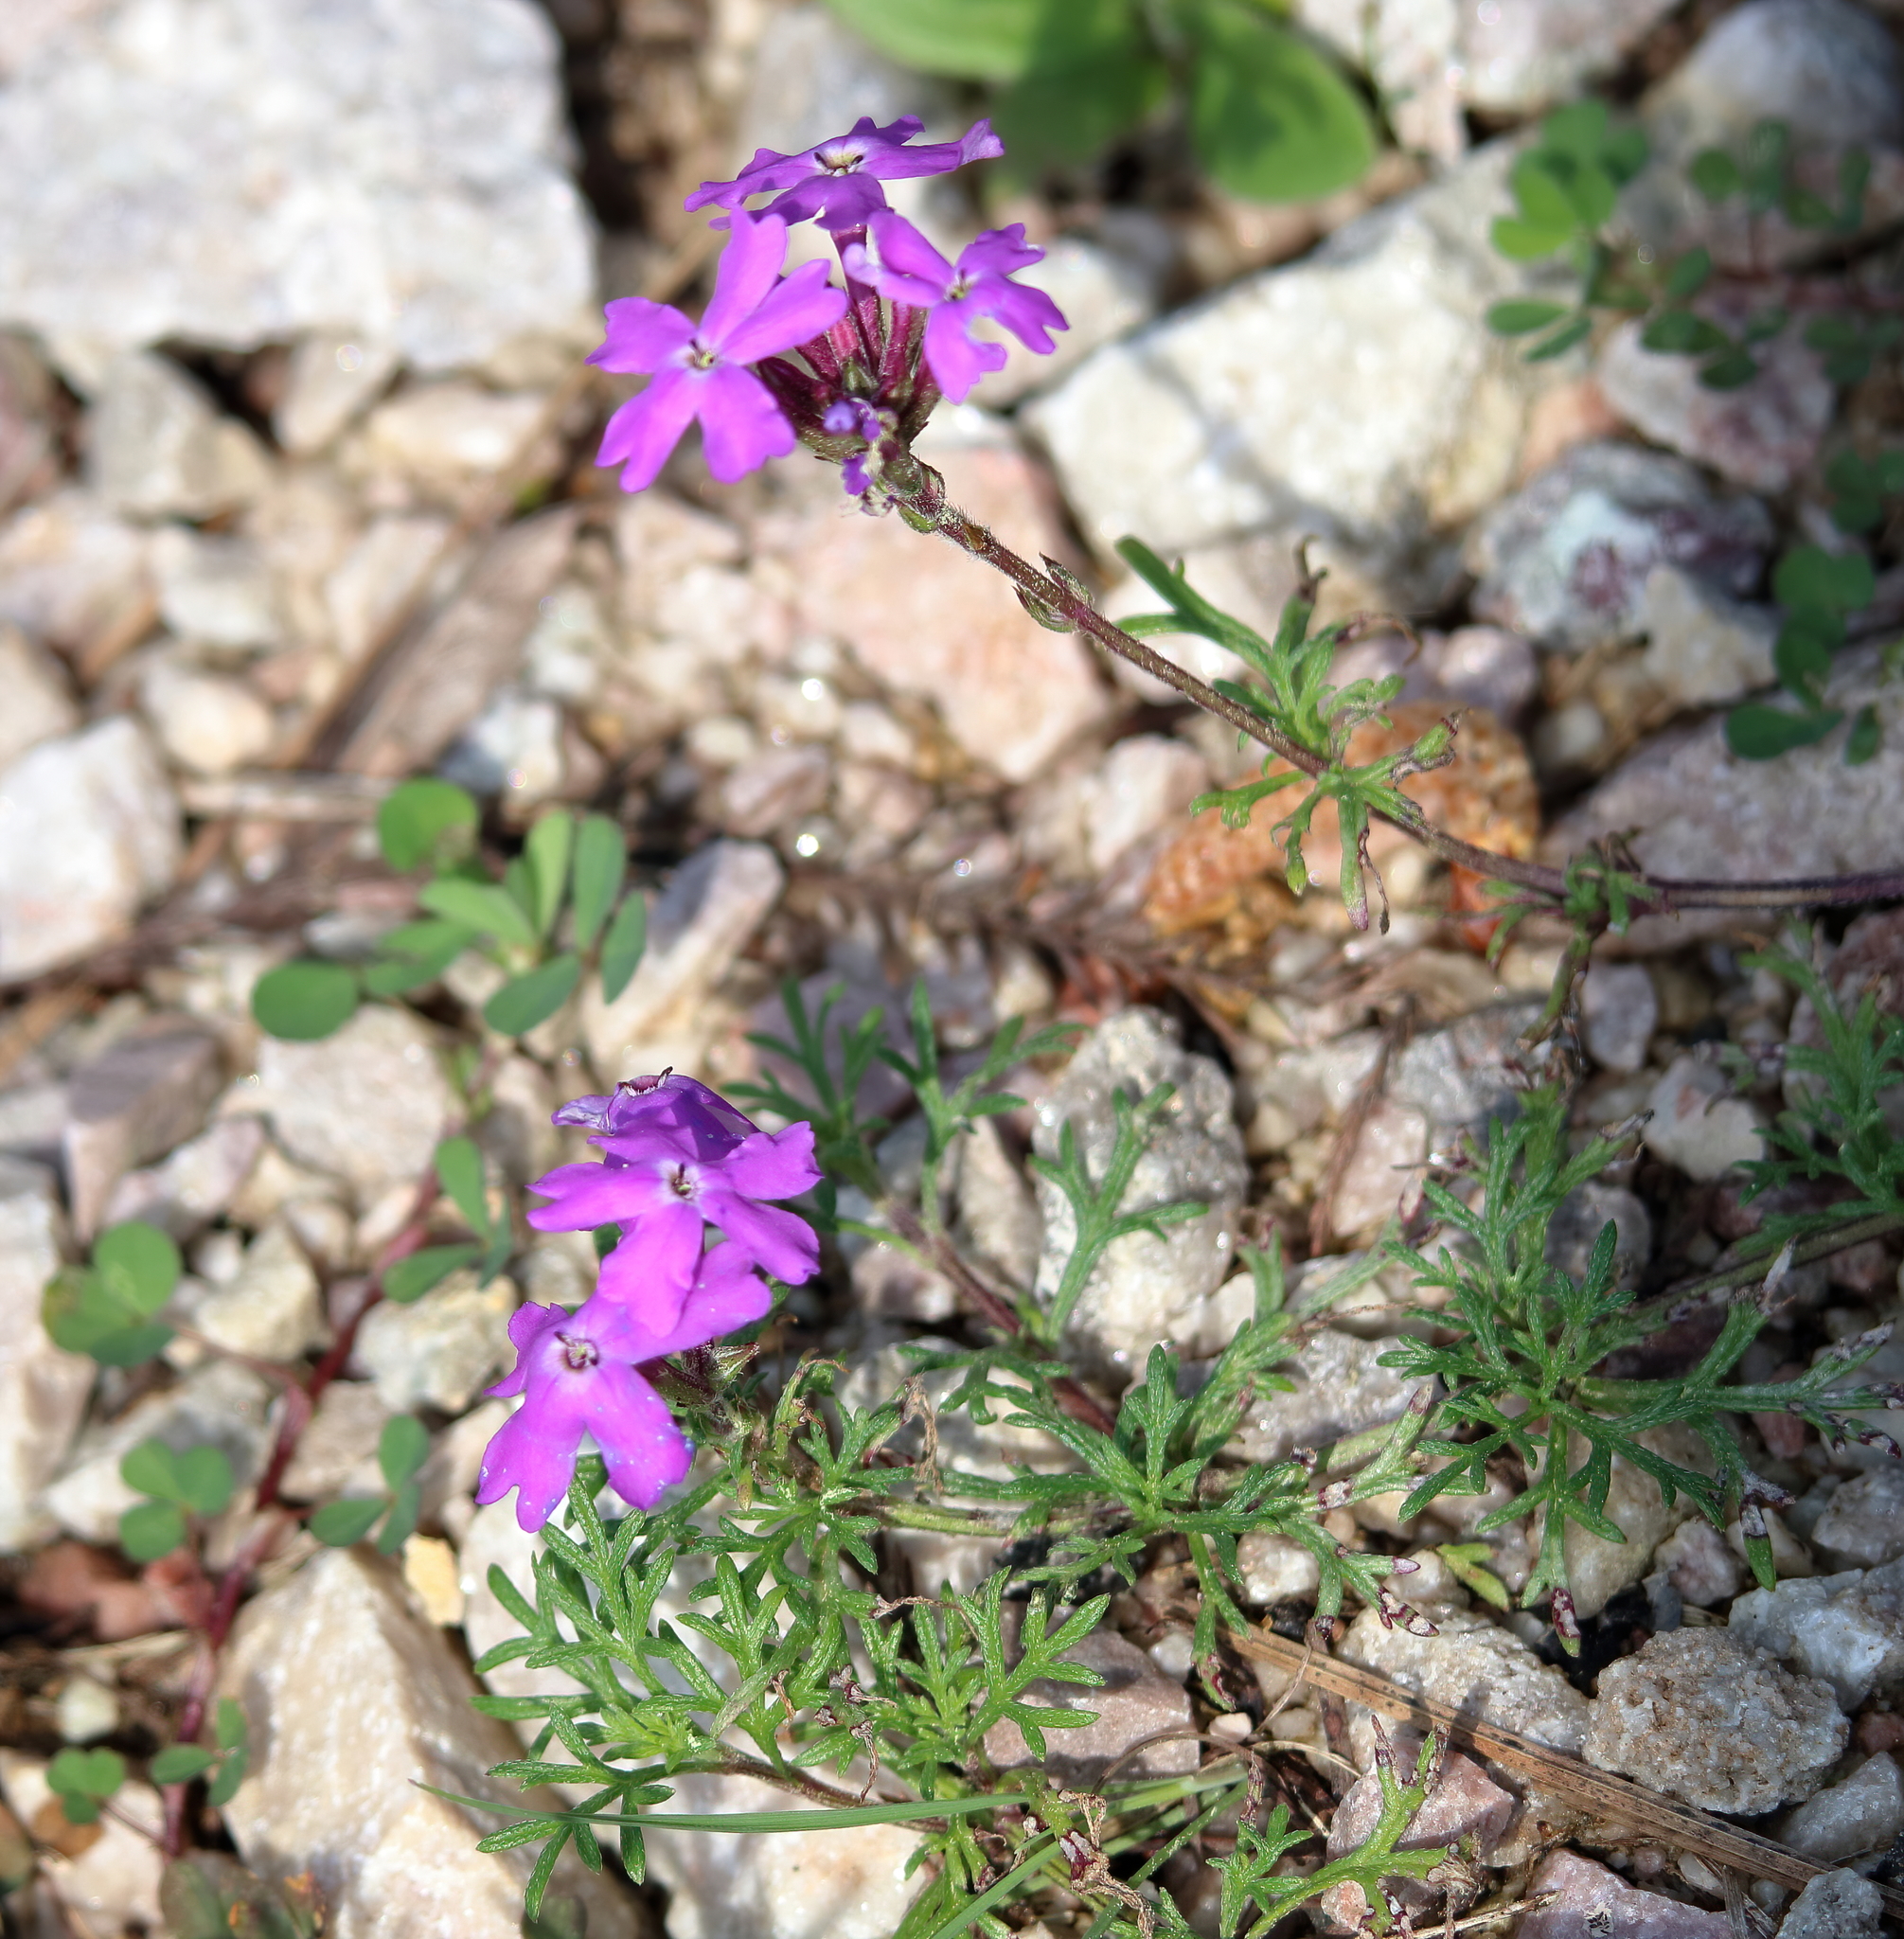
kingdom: Plantae
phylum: Tracheophyta
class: Magnoliopsida
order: Lamiales
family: Verbenaceae
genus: Verbena
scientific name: Verbena
